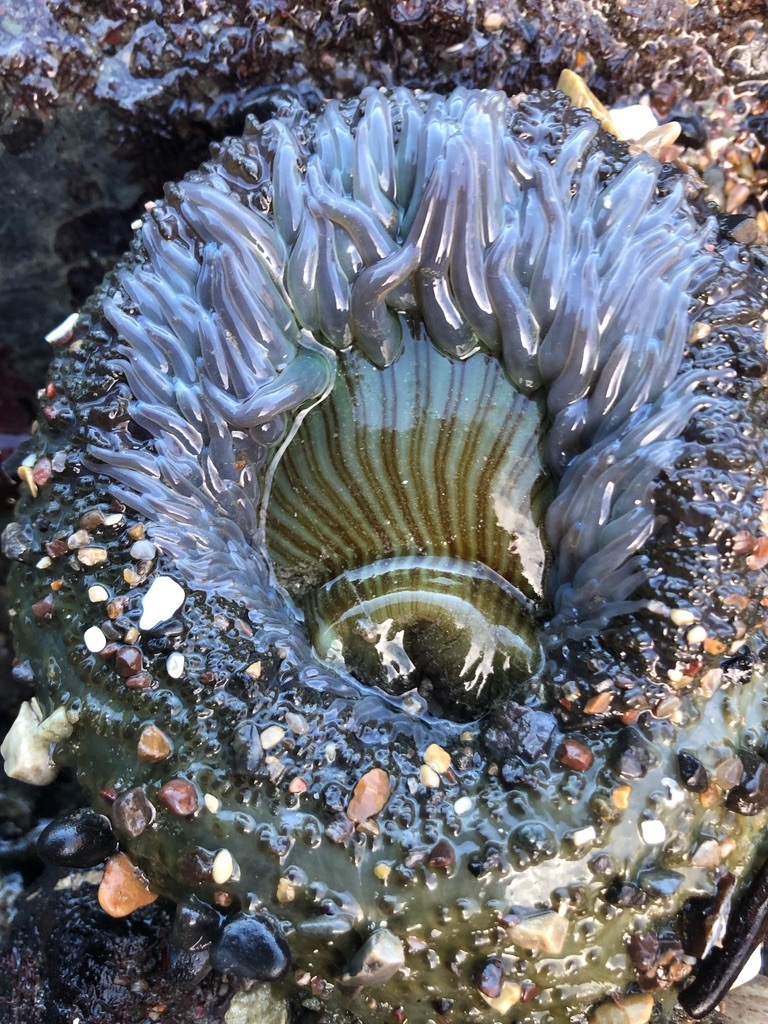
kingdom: Animalia
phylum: Cnidaria
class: Anthozoa
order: Actiniaria
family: Actiniidae
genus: Anthopleura
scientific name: Anthopleura sola
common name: Sun anemone
